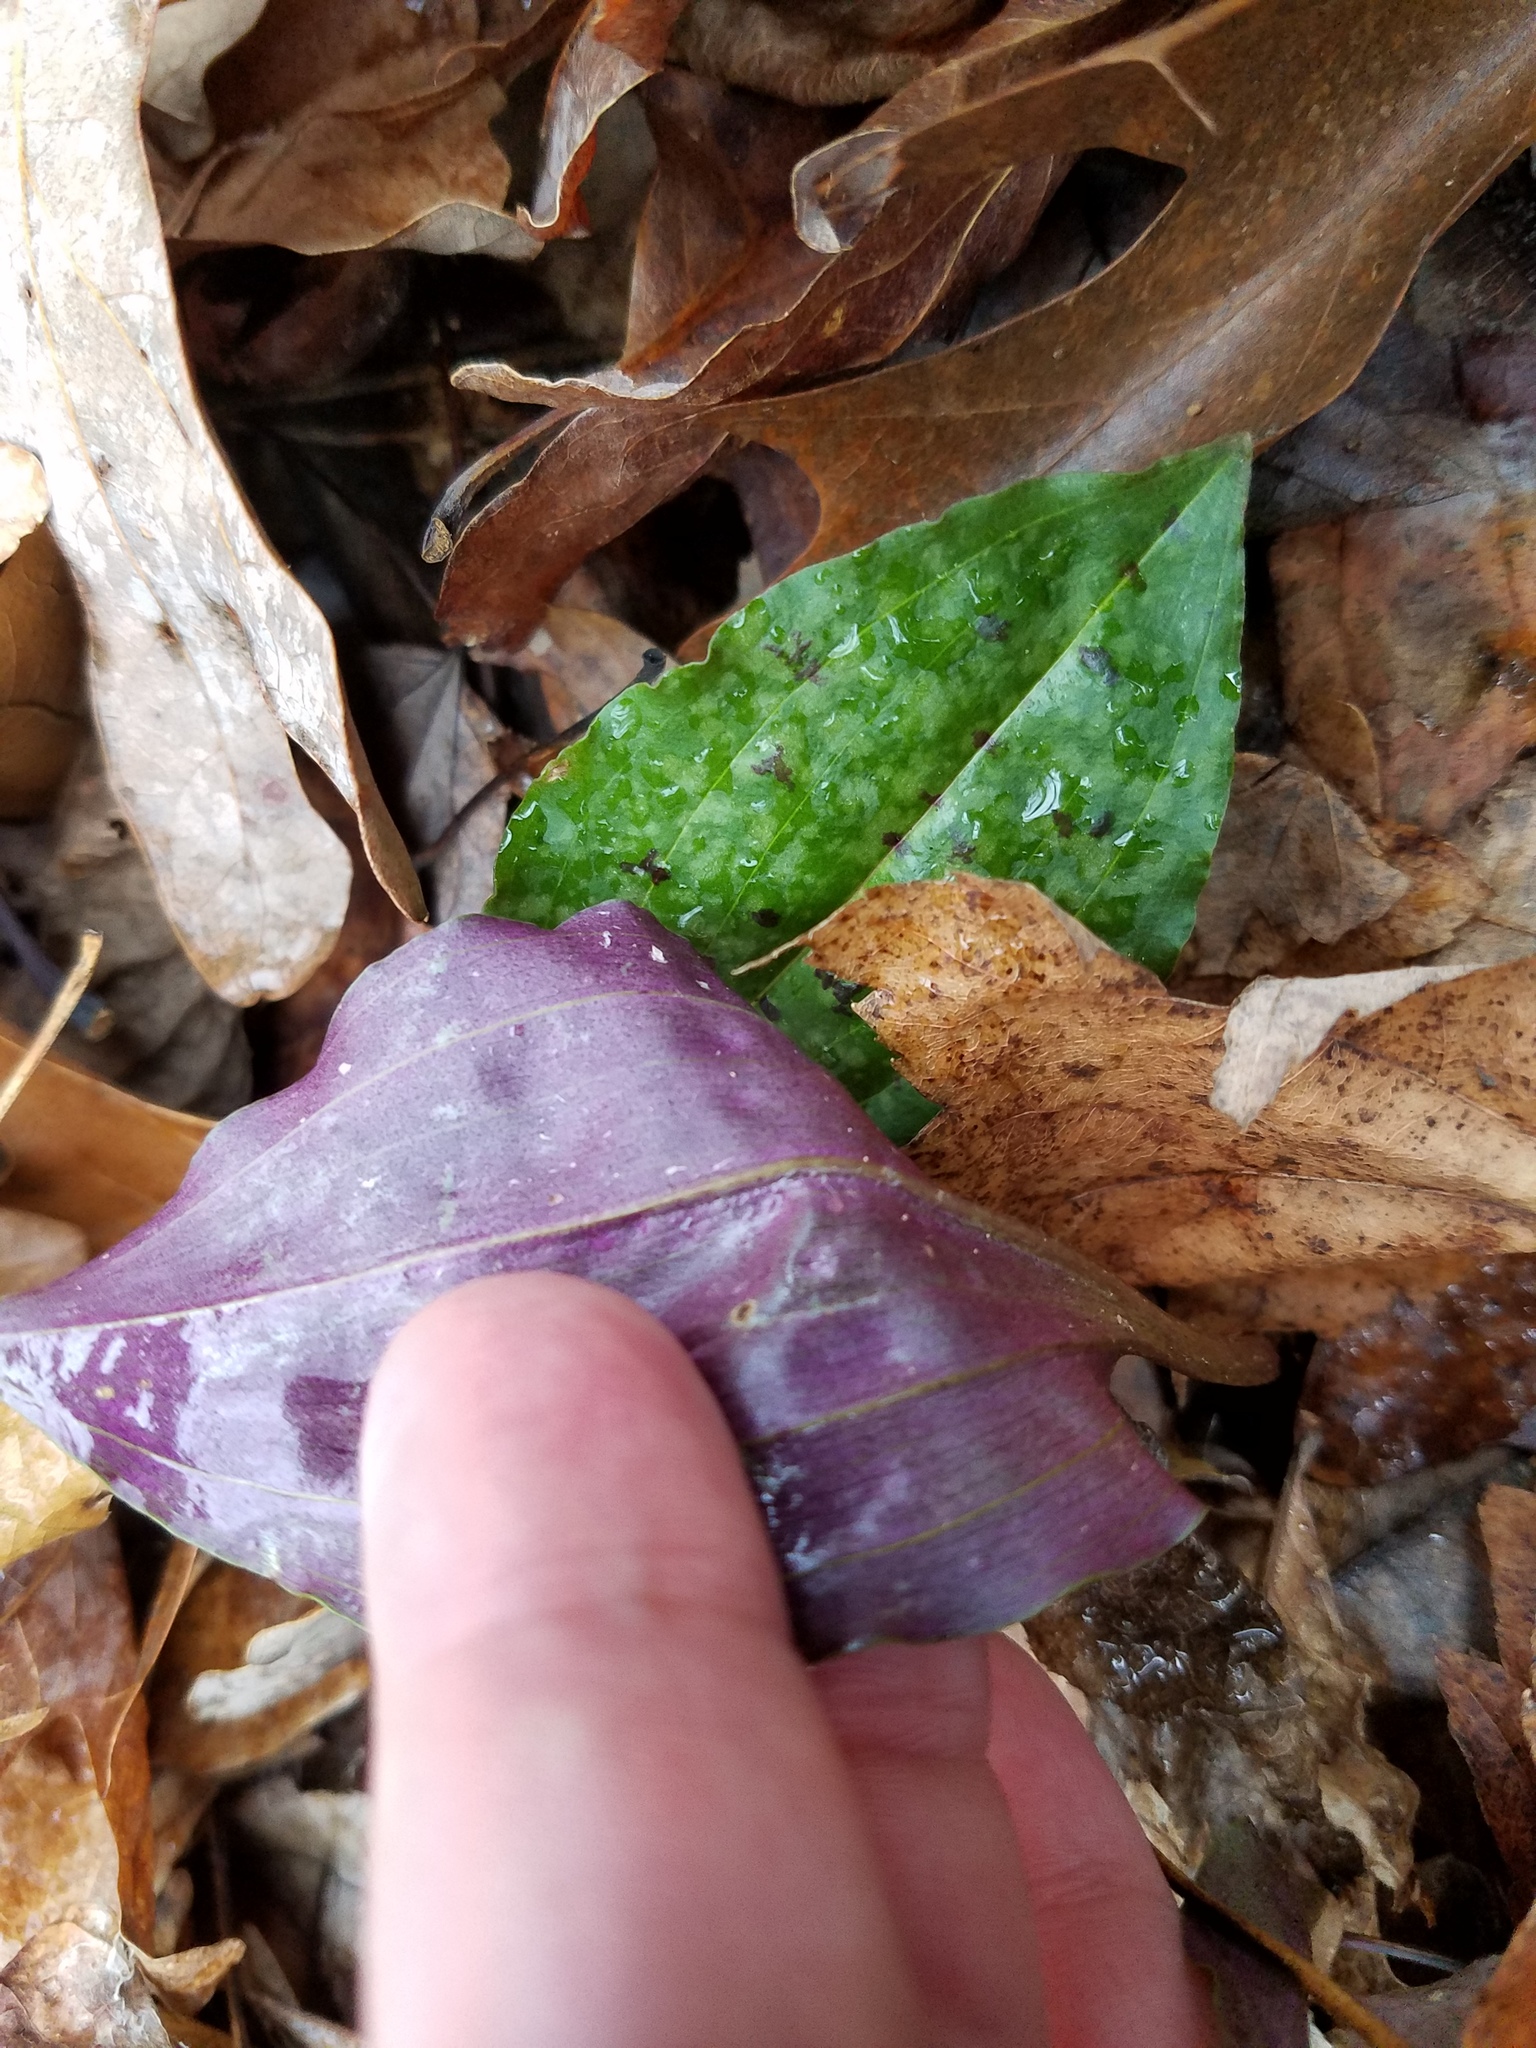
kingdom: Plantae
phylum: Tracheophyta
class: Liliopsida
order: Asparagales
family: Orchidaceae
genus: Tipularia
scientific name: Tipularia discolor
